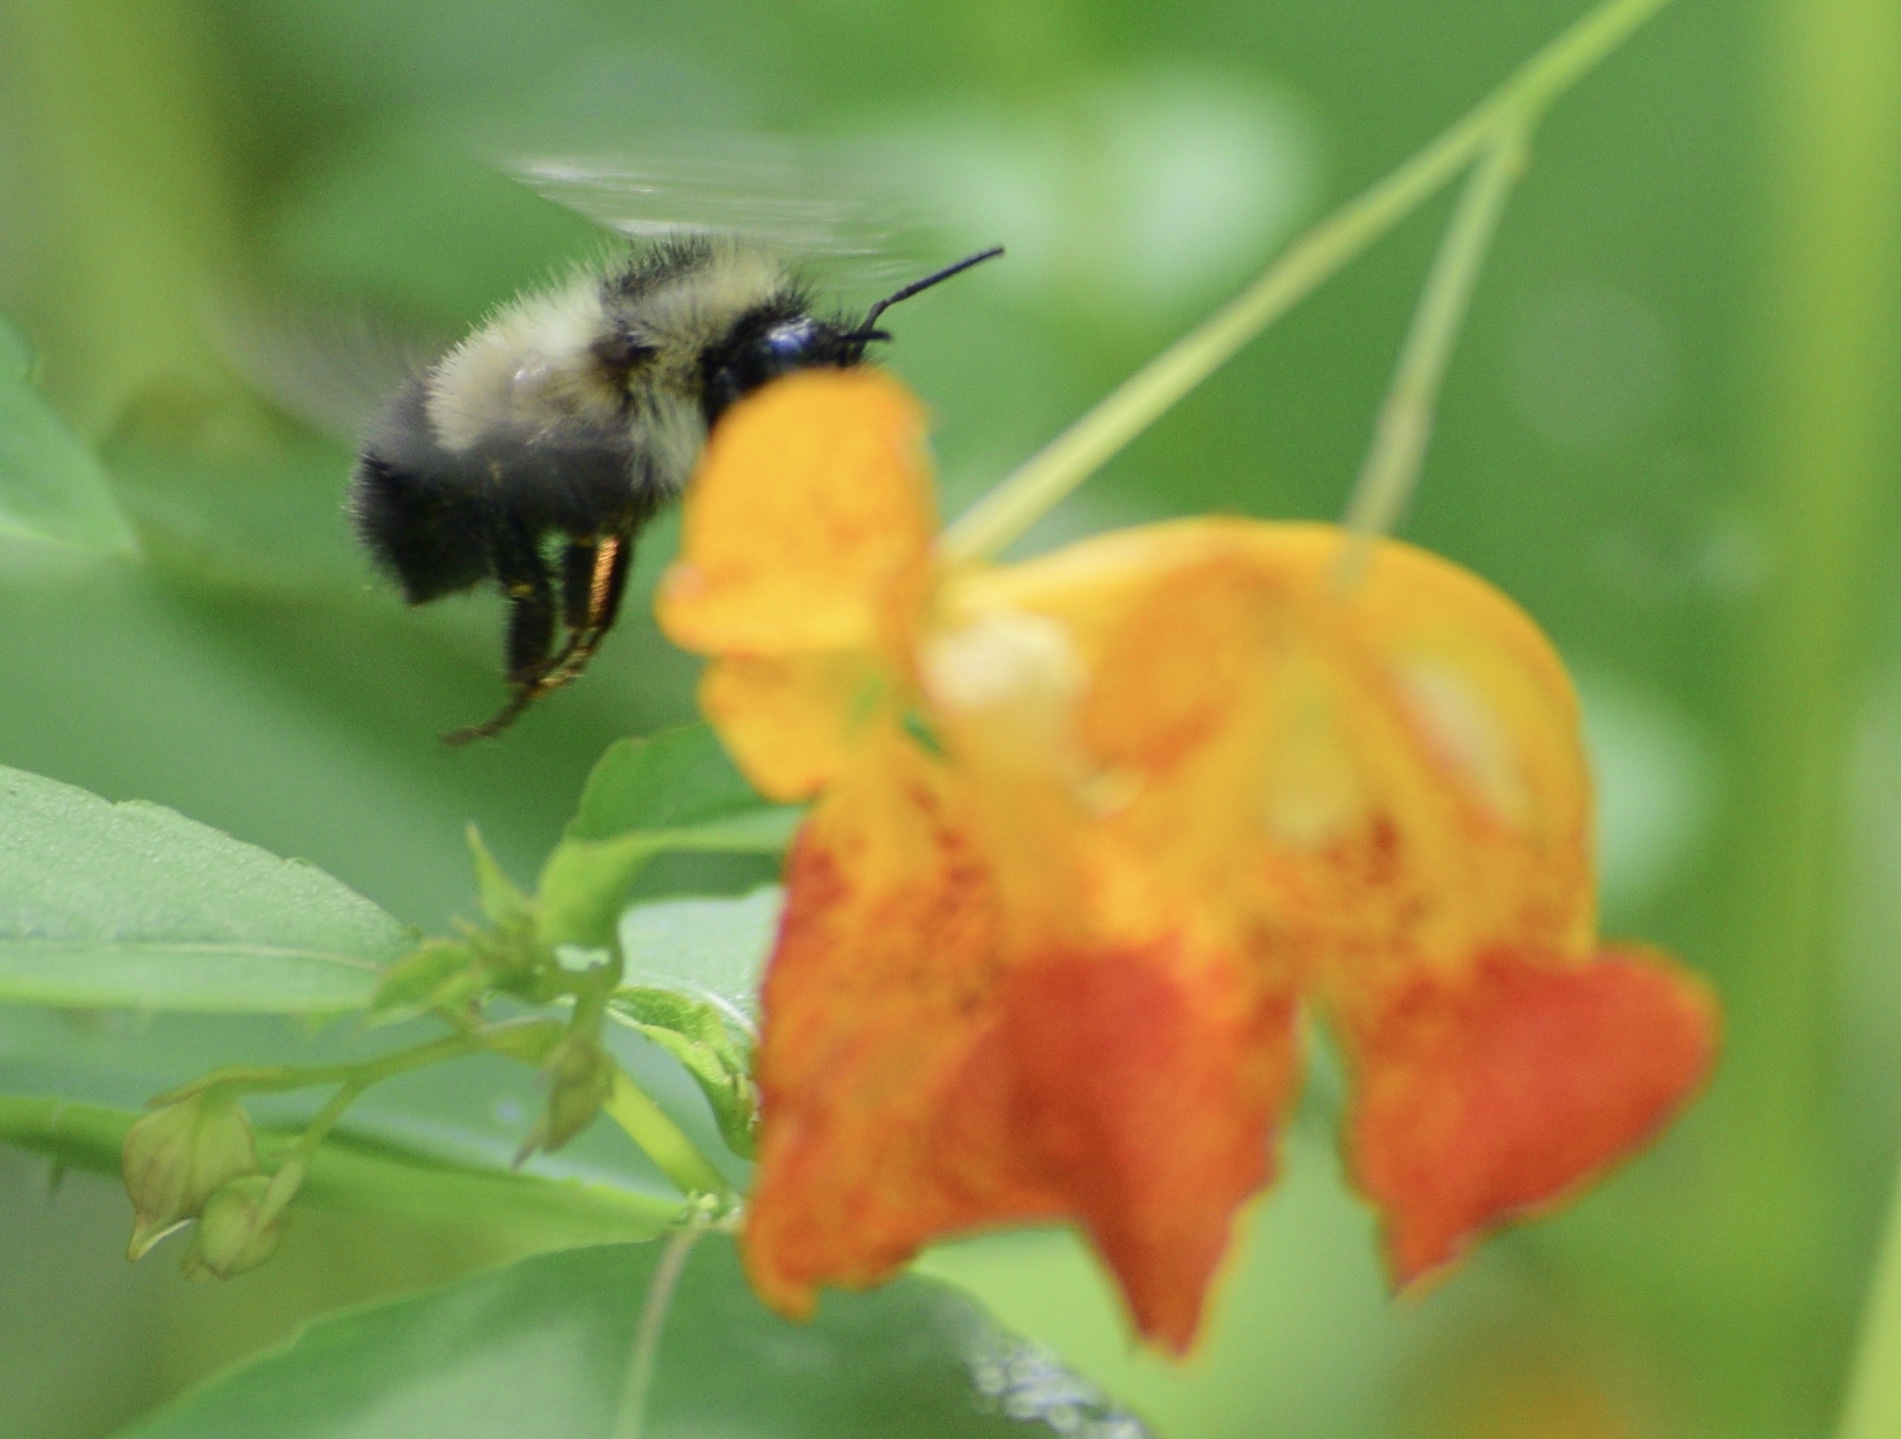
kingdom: Animalia
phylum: Arthropoda
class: Insecta
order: Hymenoptera
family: Apidae
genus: Pyrobombus
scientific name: Pyrobombus
